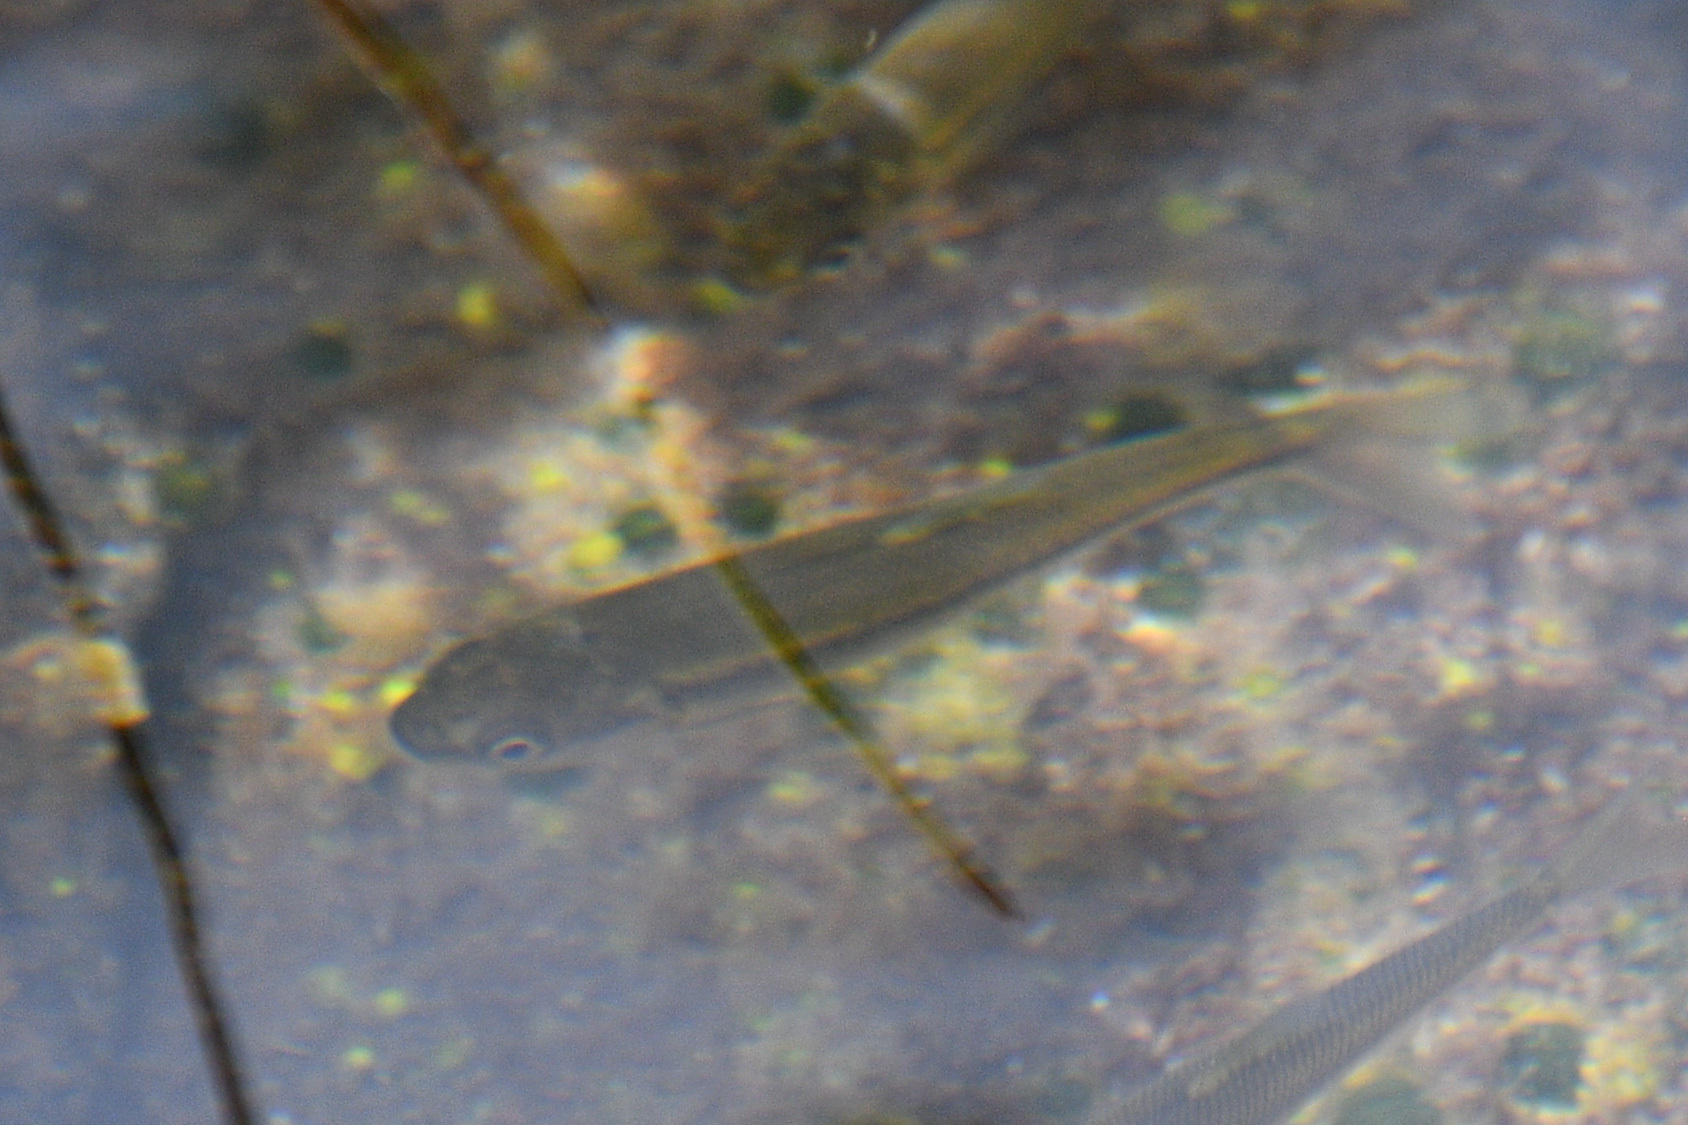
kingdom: Animalia
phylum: Chordata
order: Cypriniformes
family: Cyprinidae
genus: Couesius
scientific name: Couesius plumbeus
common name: Lake chub
